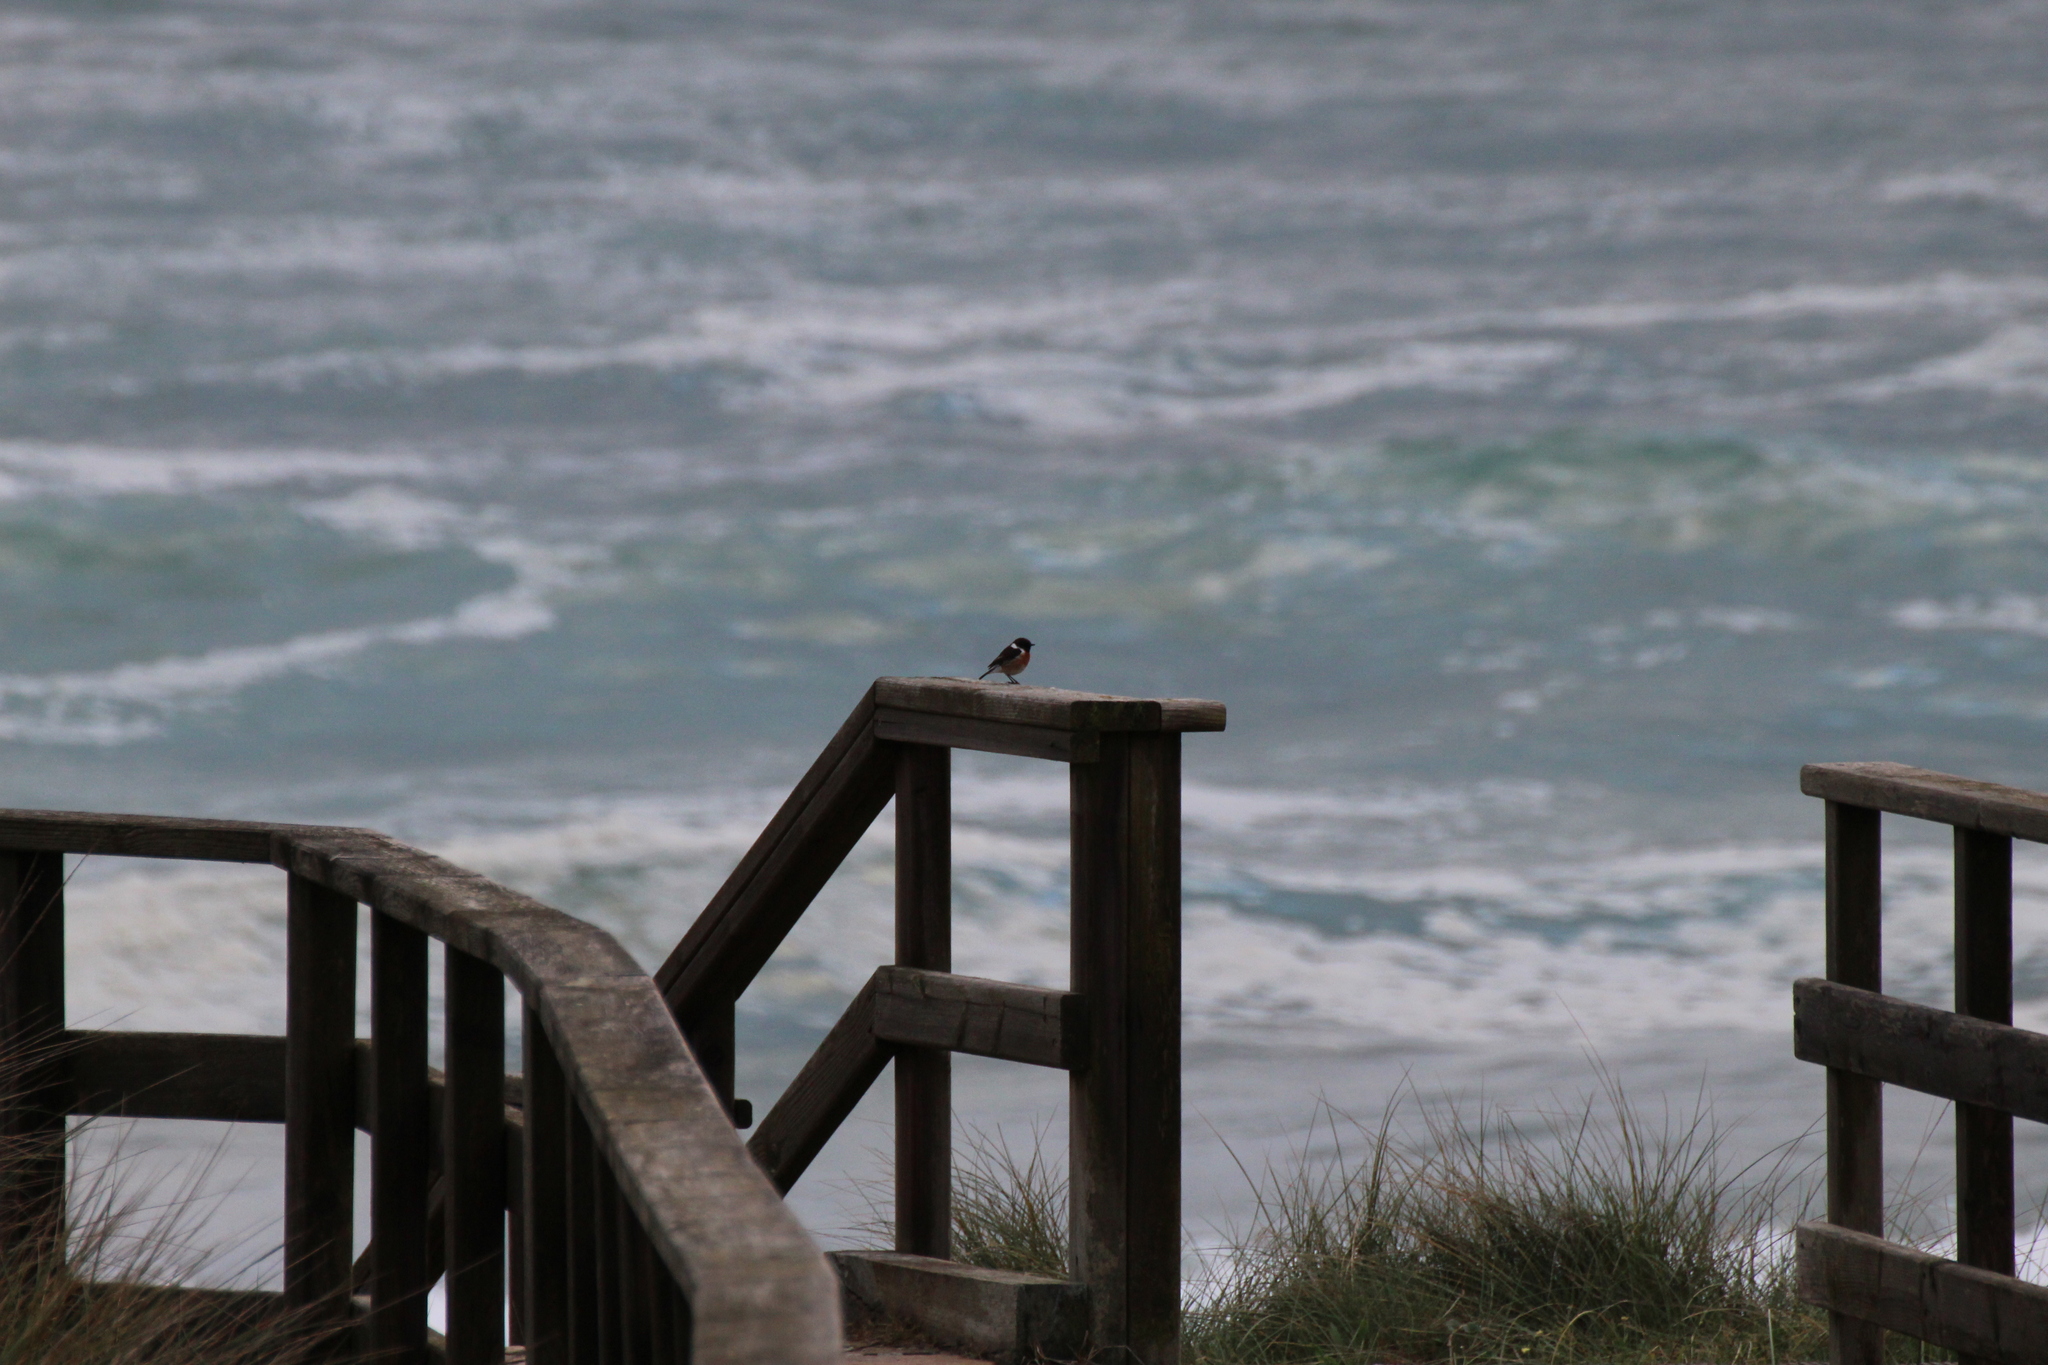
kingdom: Animalia
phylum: Chordata
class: Aves
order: Passeriformes
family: Muscicapidae
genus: Saxicola
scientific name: Saxicola rubicola
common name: European stonechat
